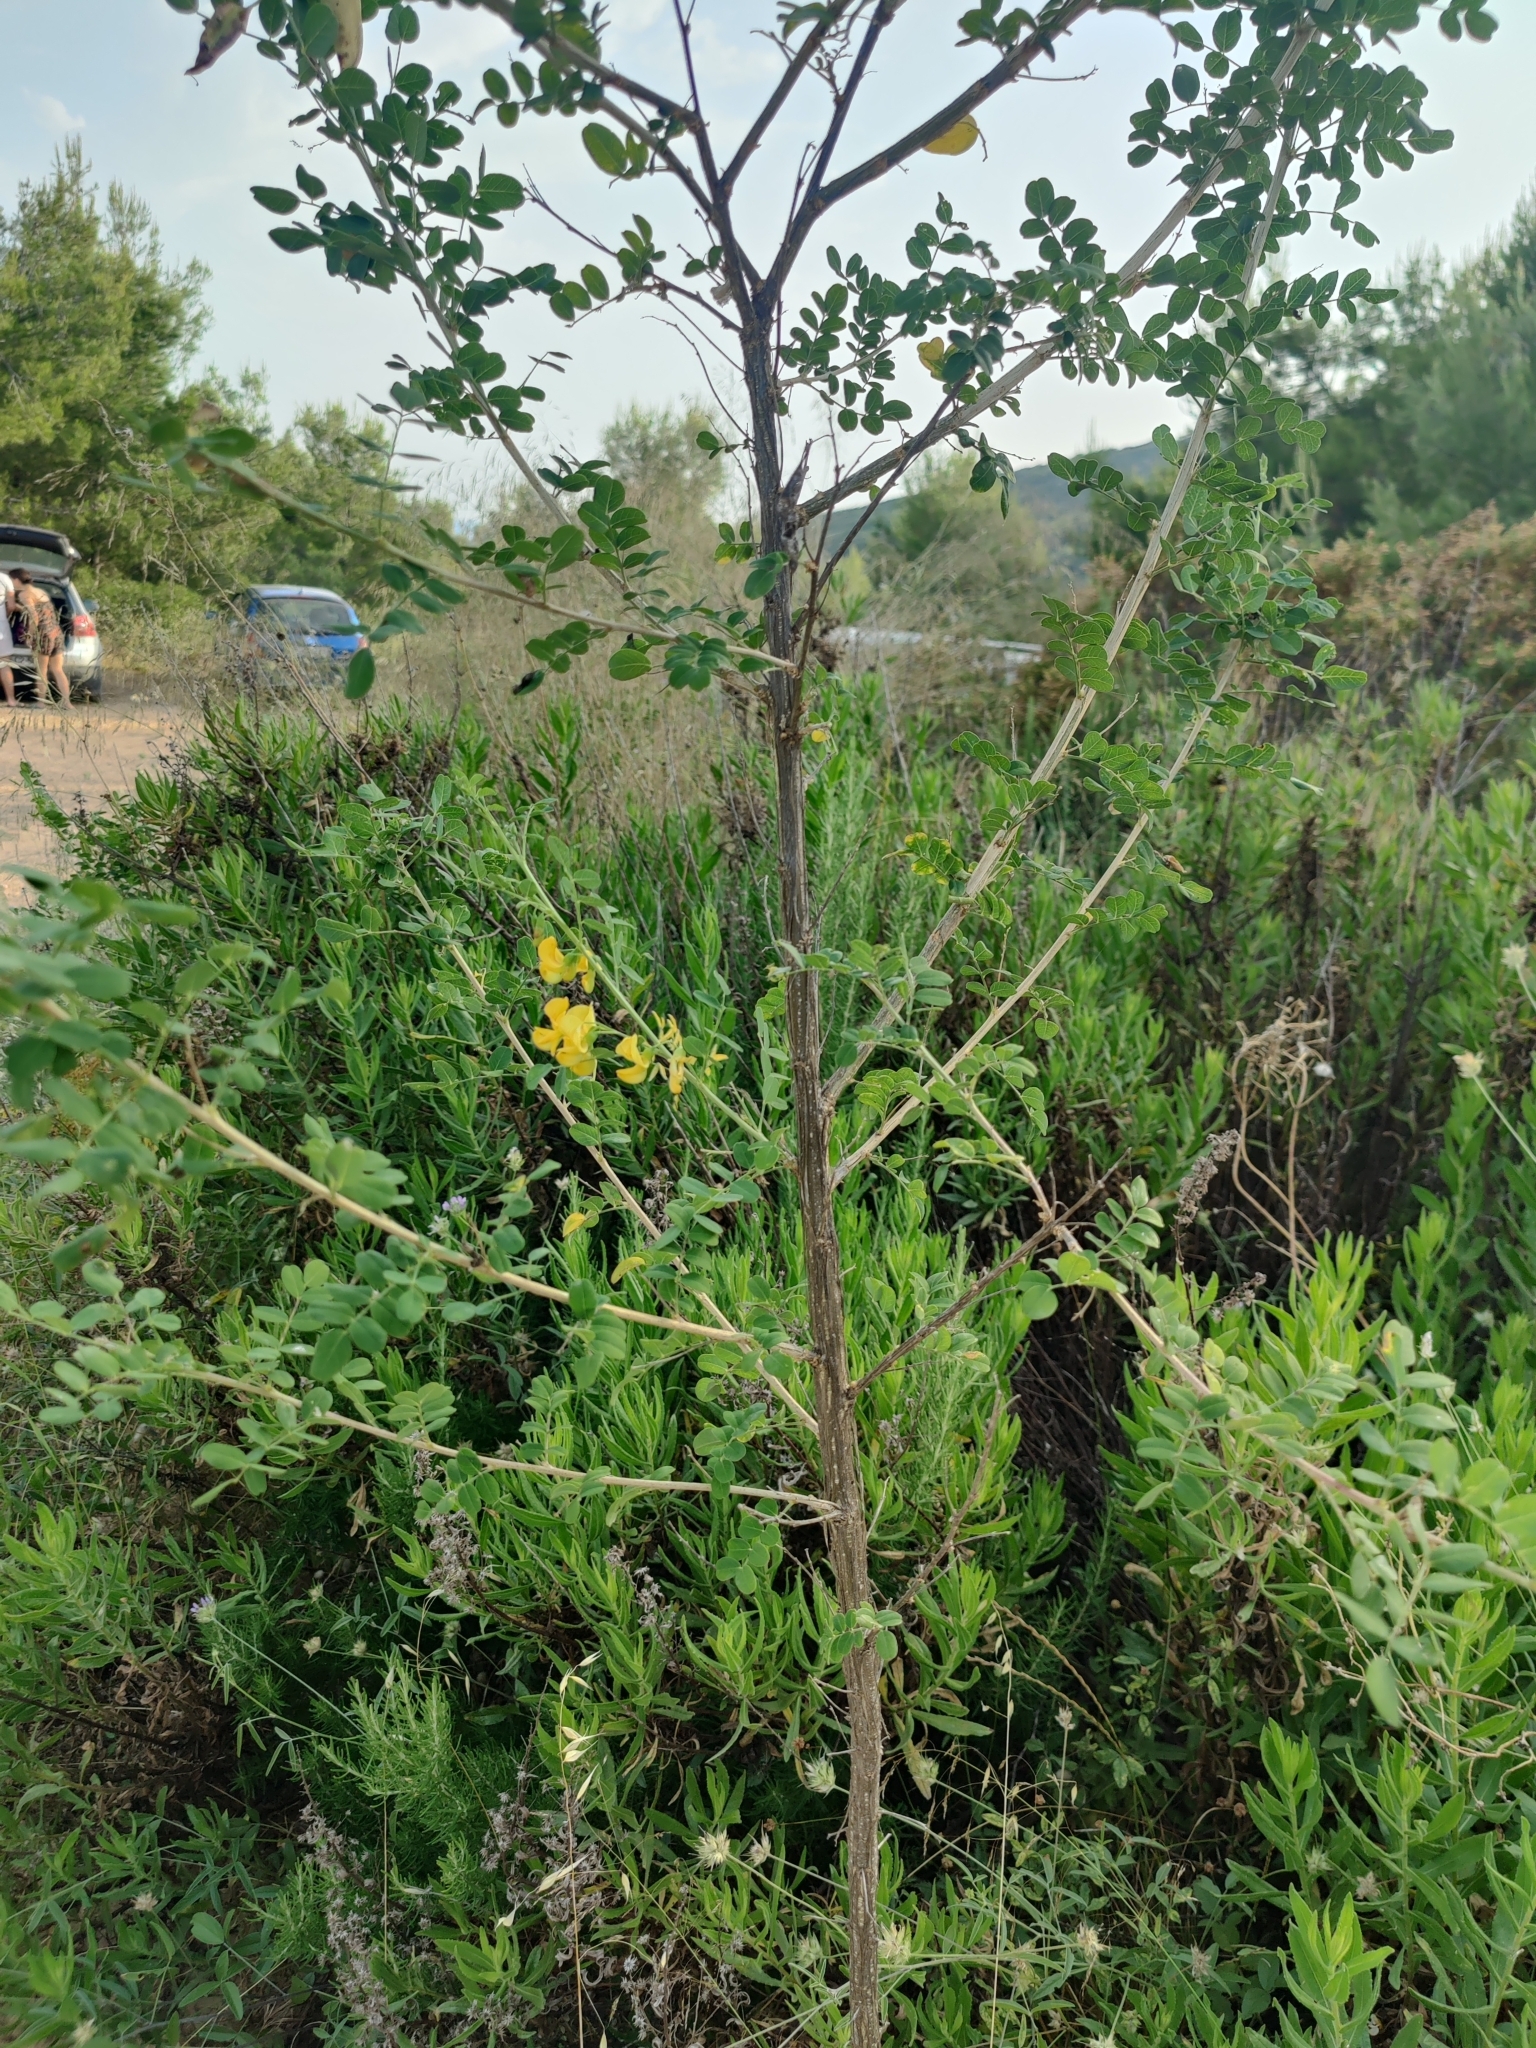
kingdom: Plantae
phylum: Tracheophyta
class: Magnoliopsida
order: Fabales
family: Fabaceae
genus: Colutea
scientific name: Colutea arborescens
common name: Bladder-senna
